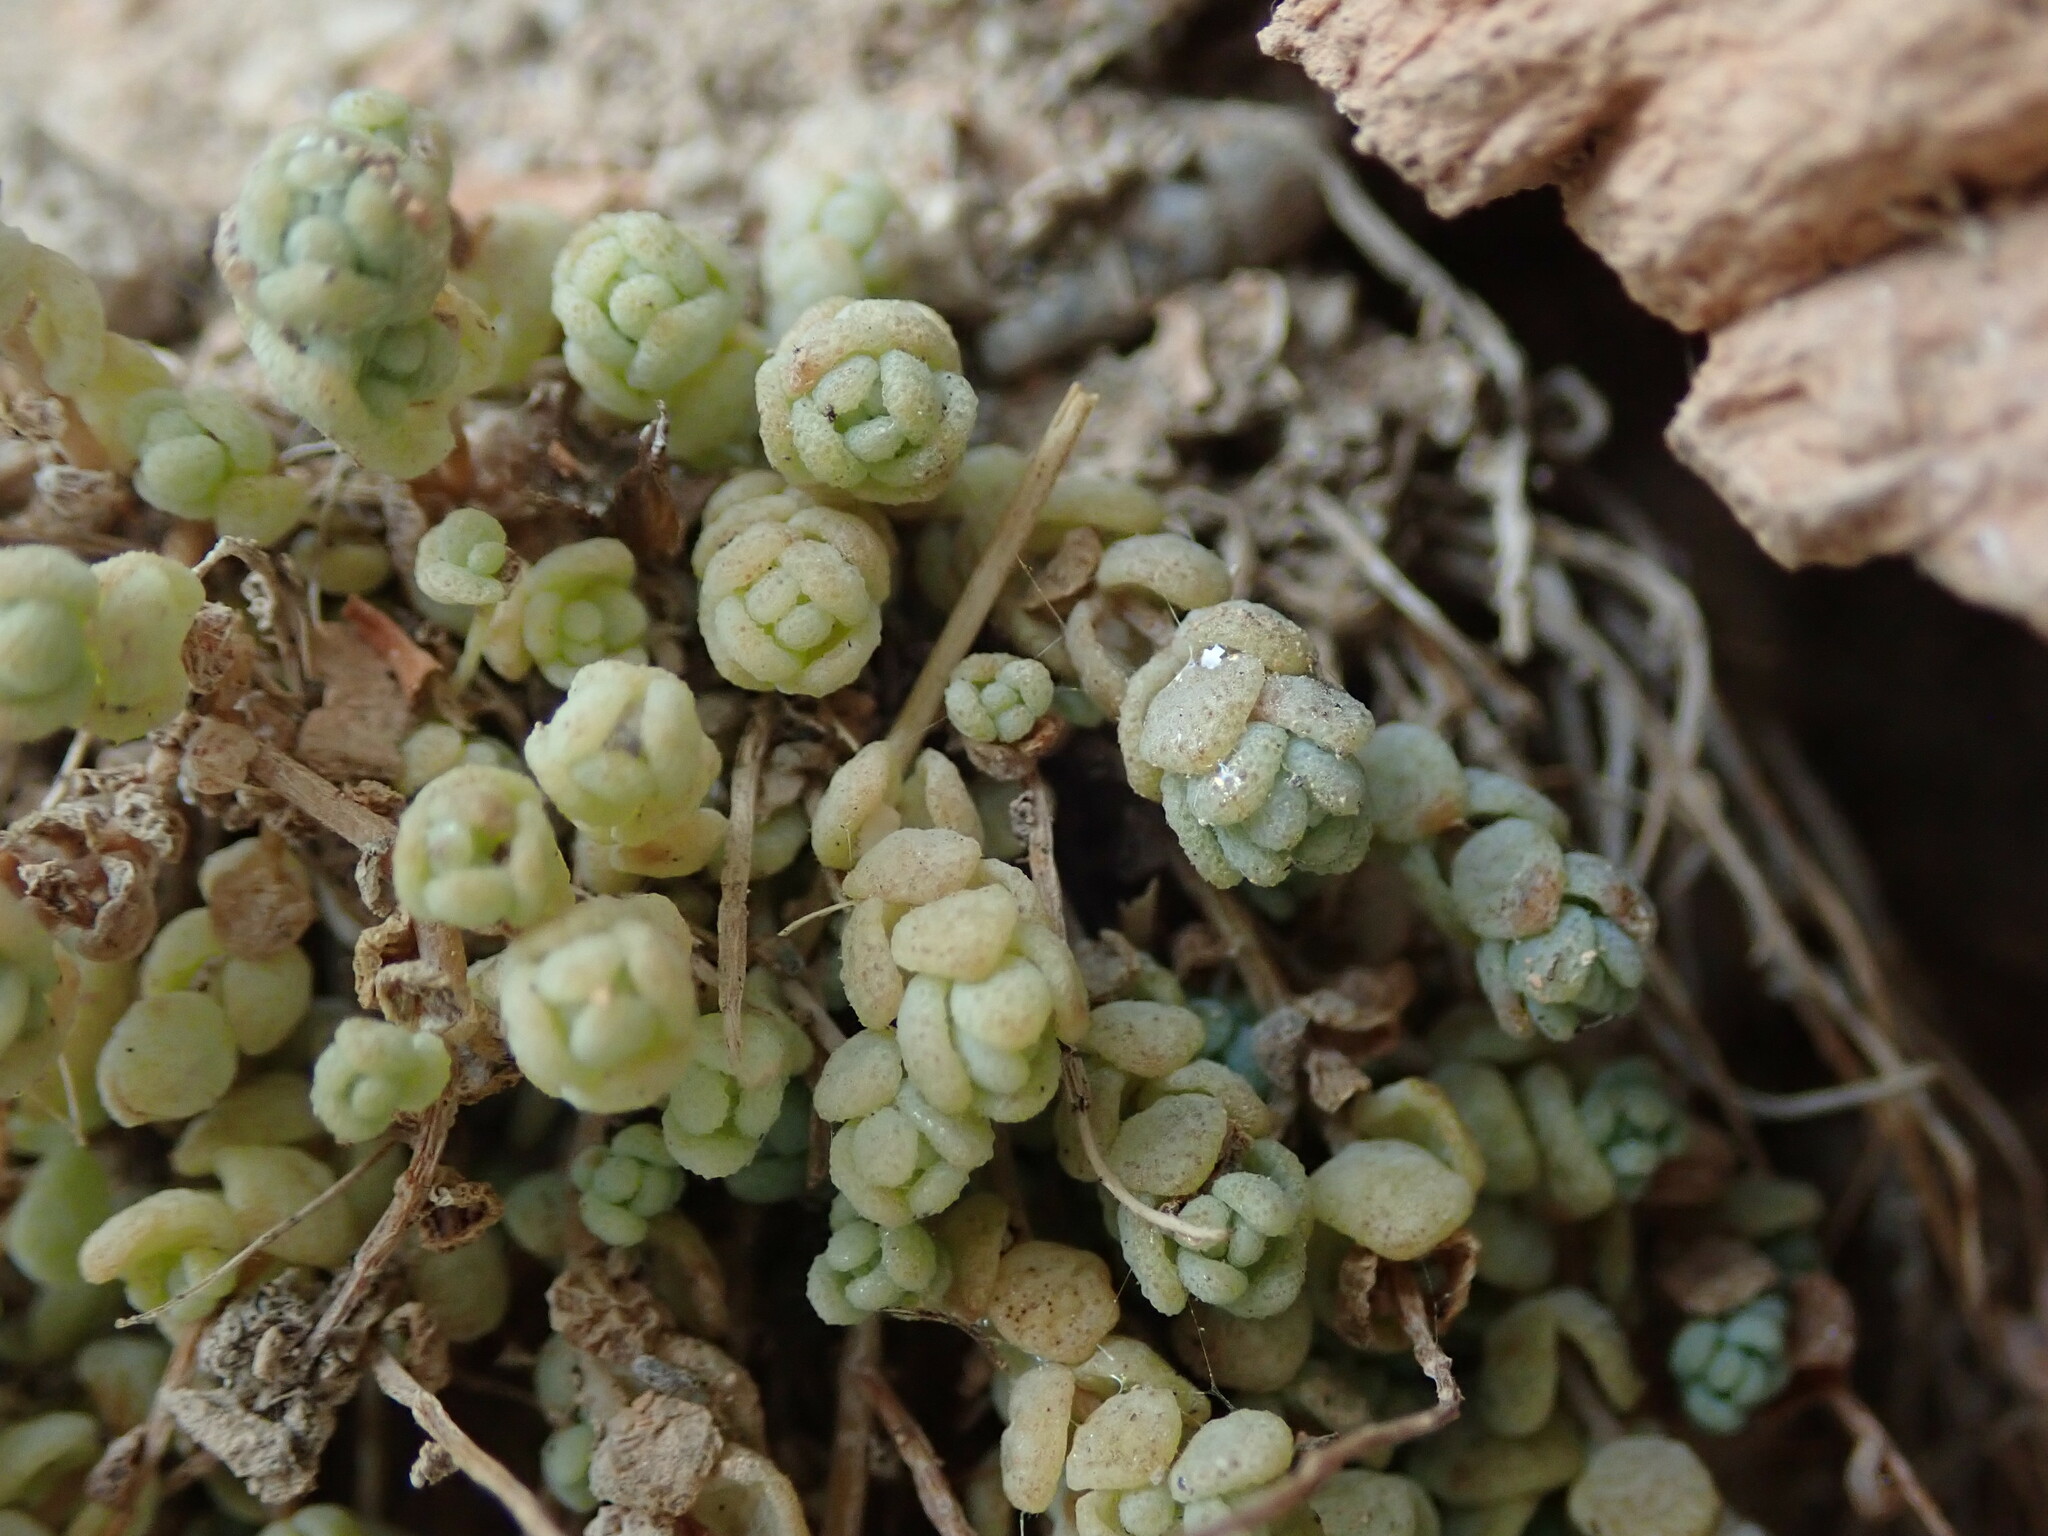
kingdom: Plantae
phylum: Tracheophyta
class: Magnoliopsida
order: Saxifragales
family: Crassulaceae
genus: Sedum
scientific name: Sedum dasyphyllum
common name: Thick-leaf stonecrop
